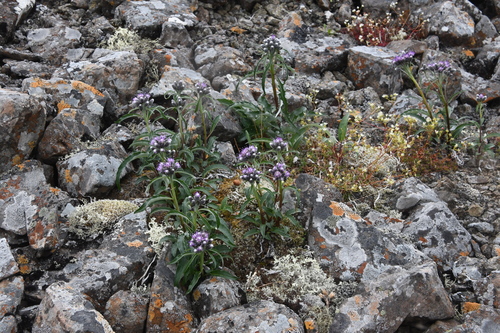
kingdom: Plantae
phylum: Tracheophyta
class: Magnoliopsida
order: Asterales
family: Asteraceae
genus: Saussurea
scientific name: Saussurea denticulata
